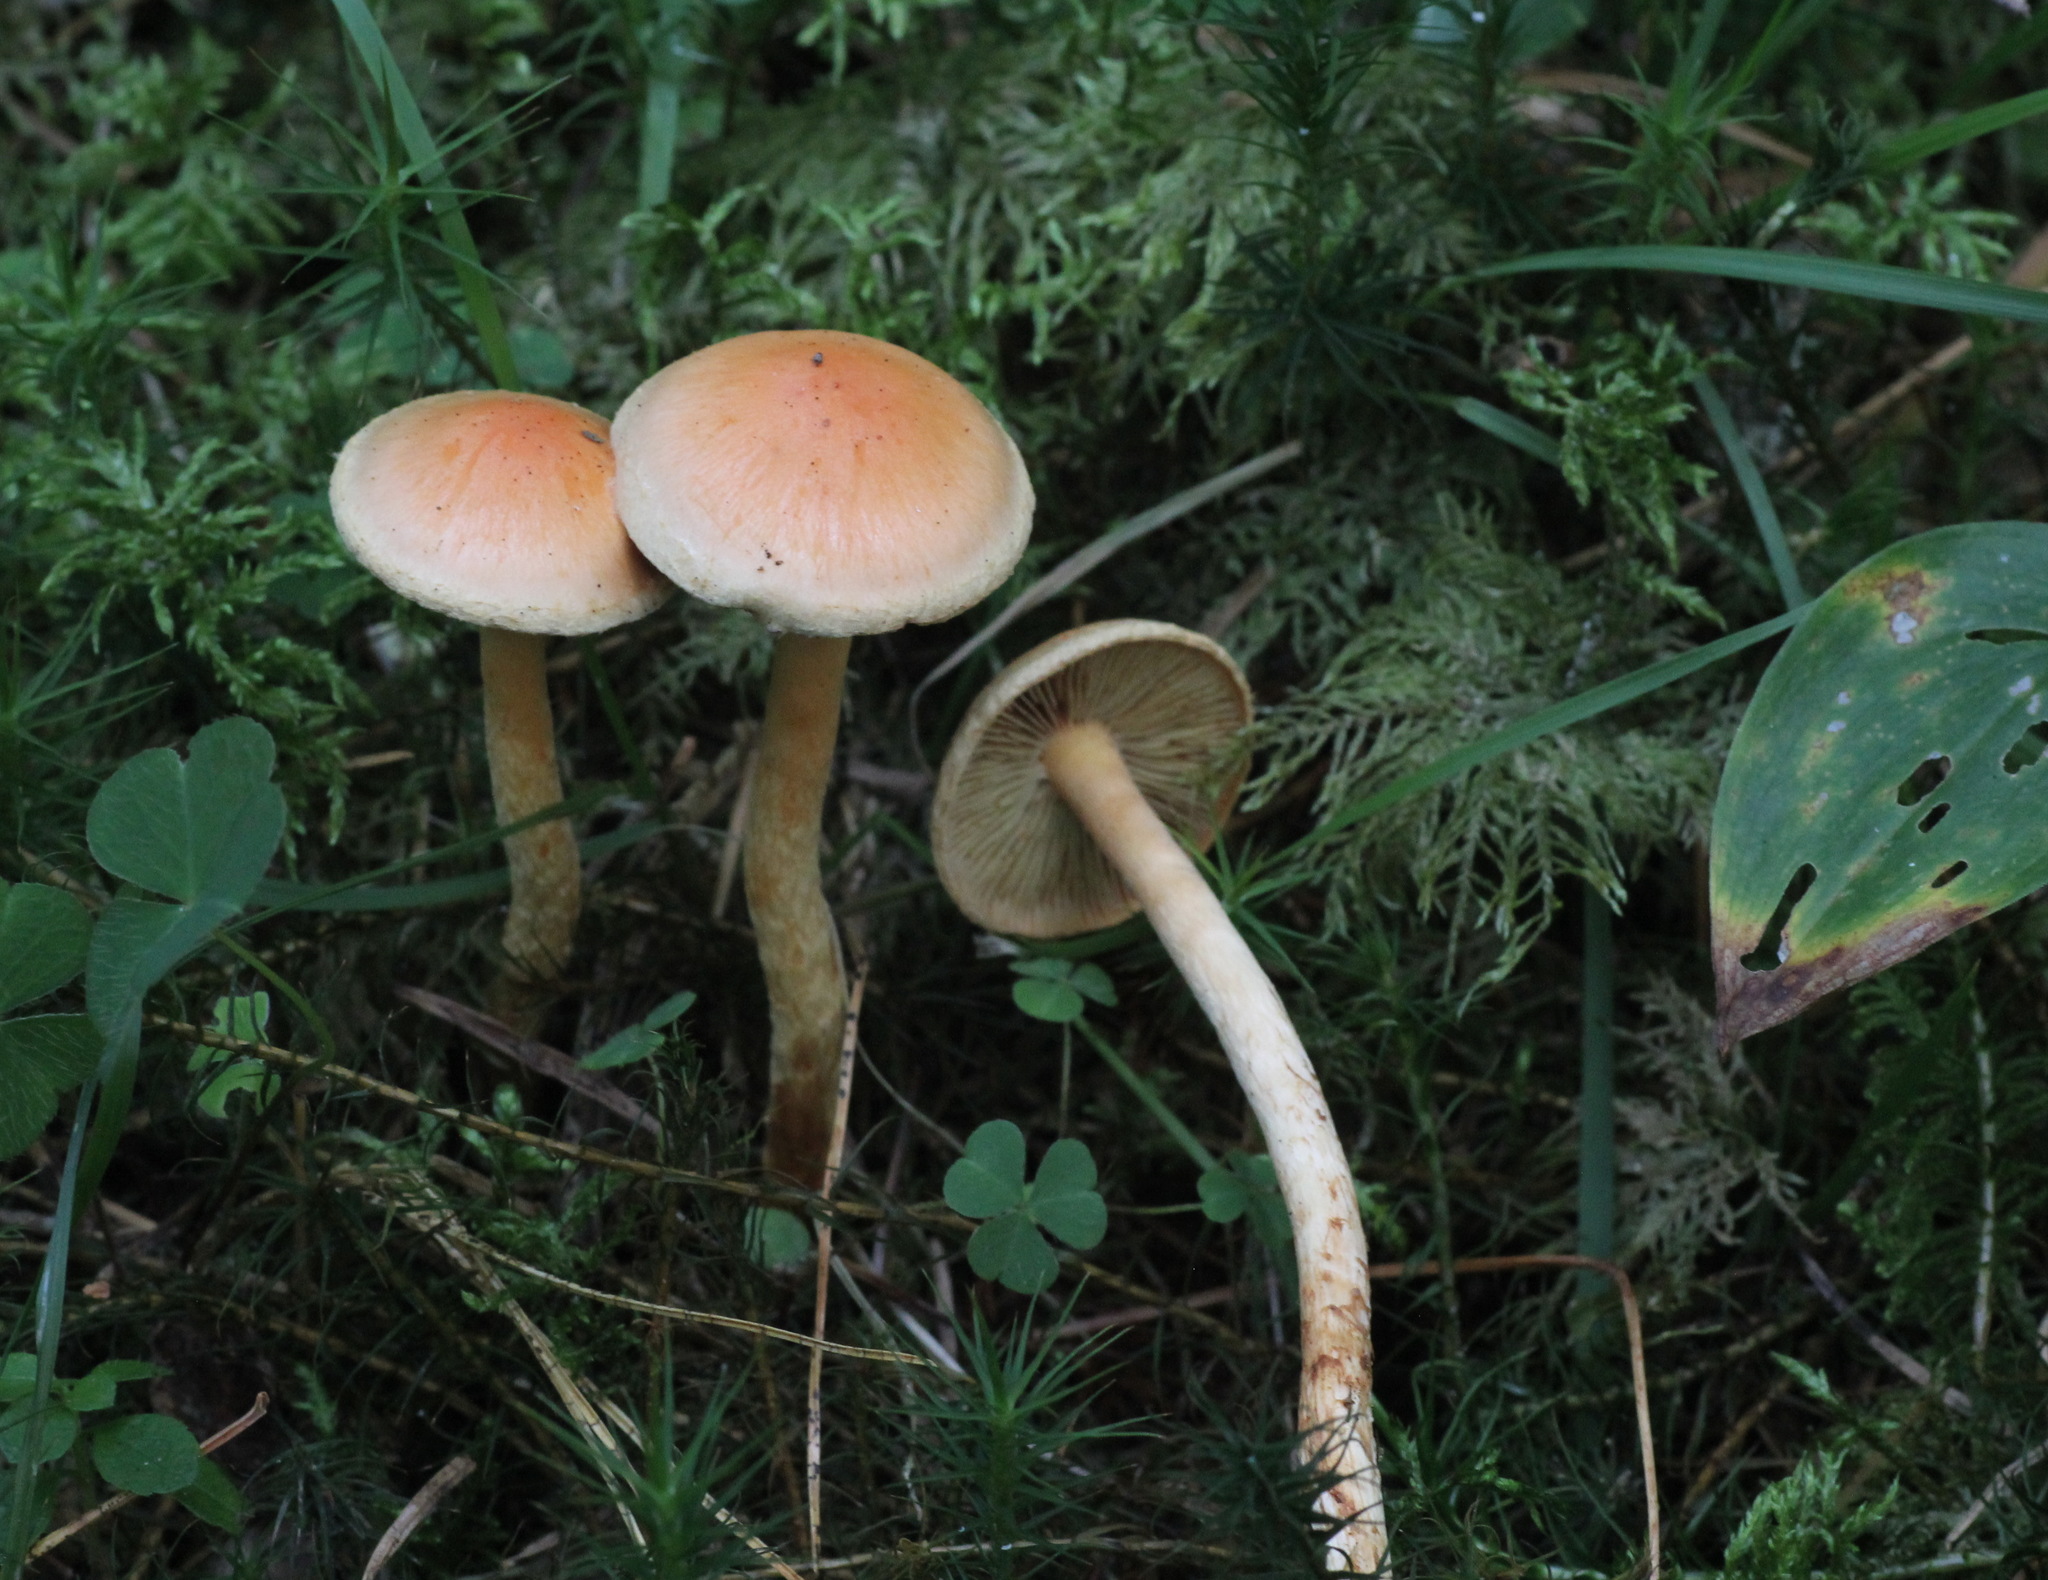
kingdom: Fungi
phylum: Basidiomycota
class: Agaricomycetes
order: Agaricales
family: Strophariaceae
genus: Pyrrhulomyces
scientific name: Pyrrhulomyces astragalinus
